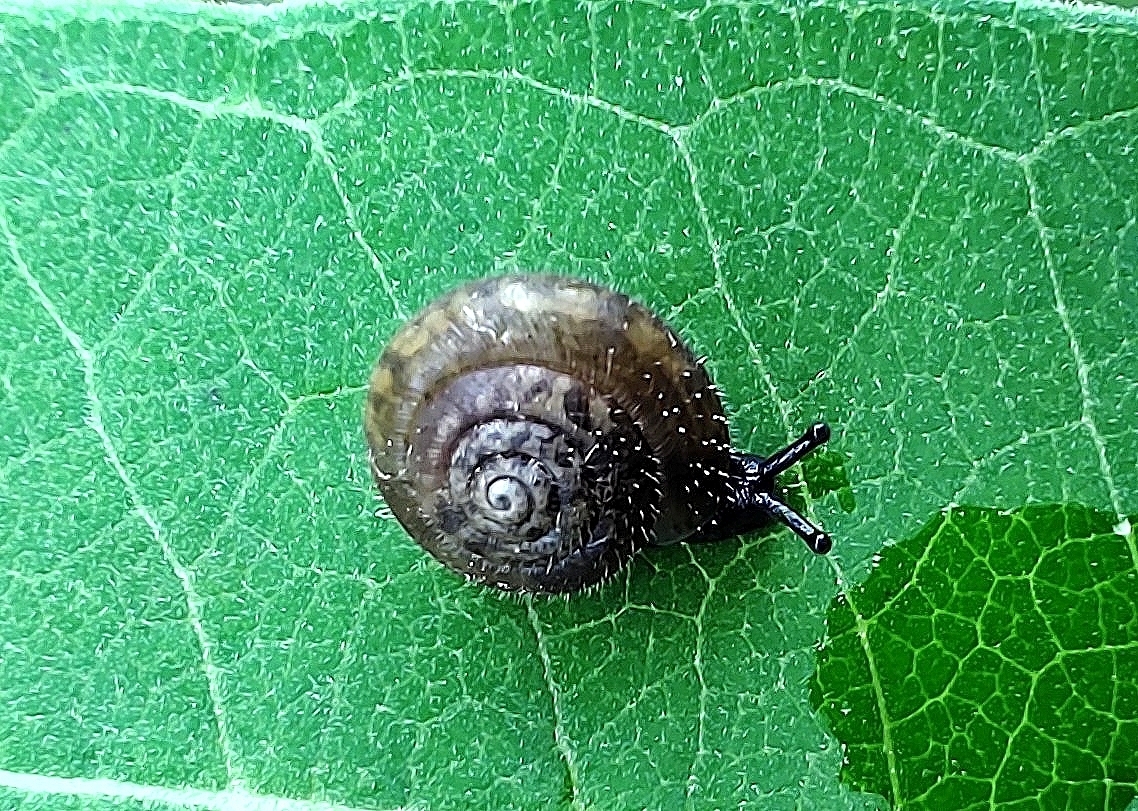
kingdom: Animalia
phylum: Mollusca
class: Gastropoda
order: Stylommatophora
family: Hygromiidae
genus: Trochulus
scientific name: Trochulus hispidus
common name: Hairy snail
